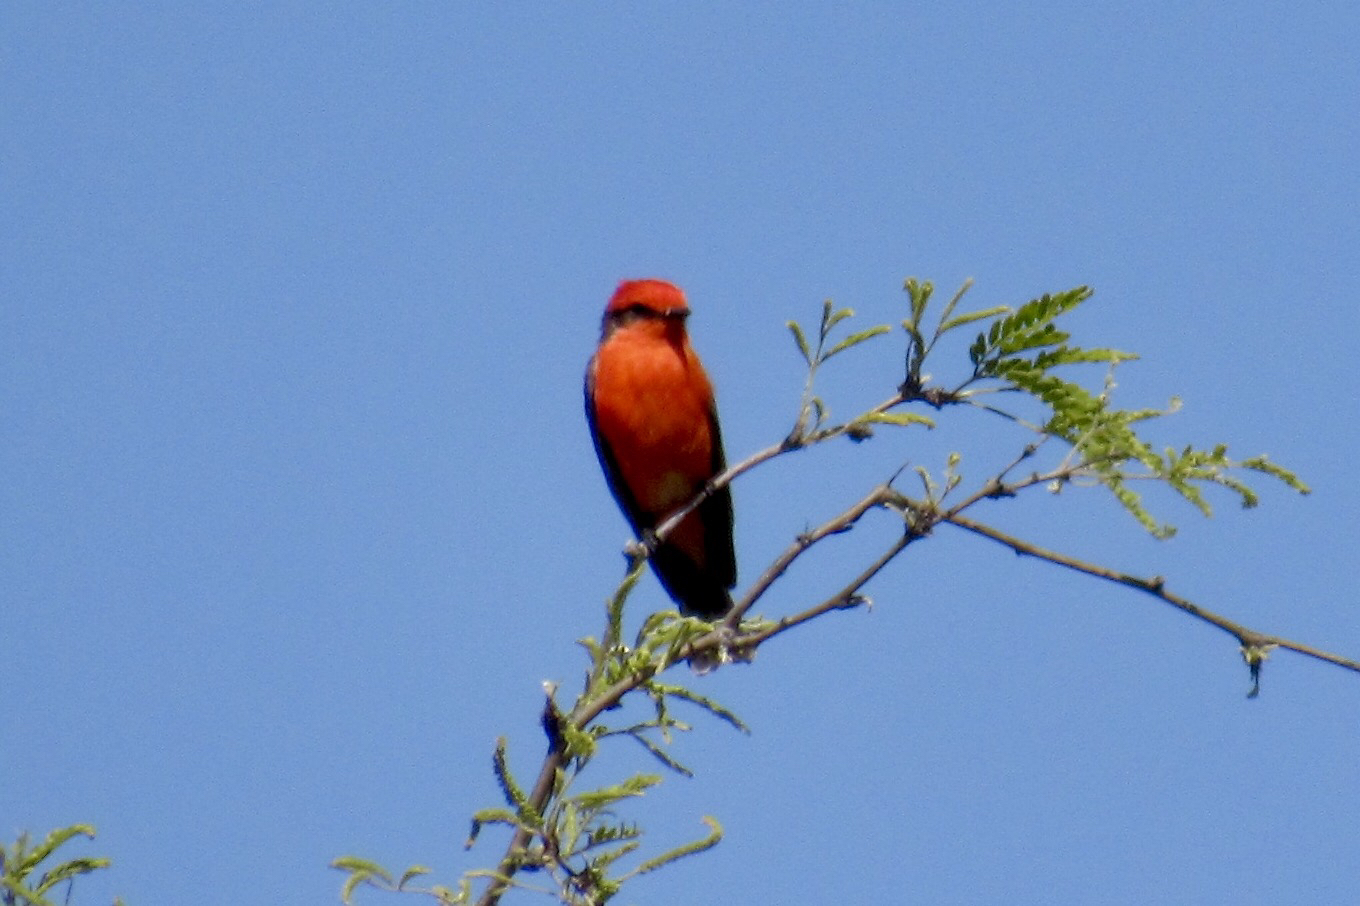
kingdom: Animalia
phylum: Chordata
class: Aves
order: Passeriformes
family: Tyrannidae
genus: Pyrocephalus
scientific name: Pyrocephalus rubinus
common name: Vermilion flycatcher
